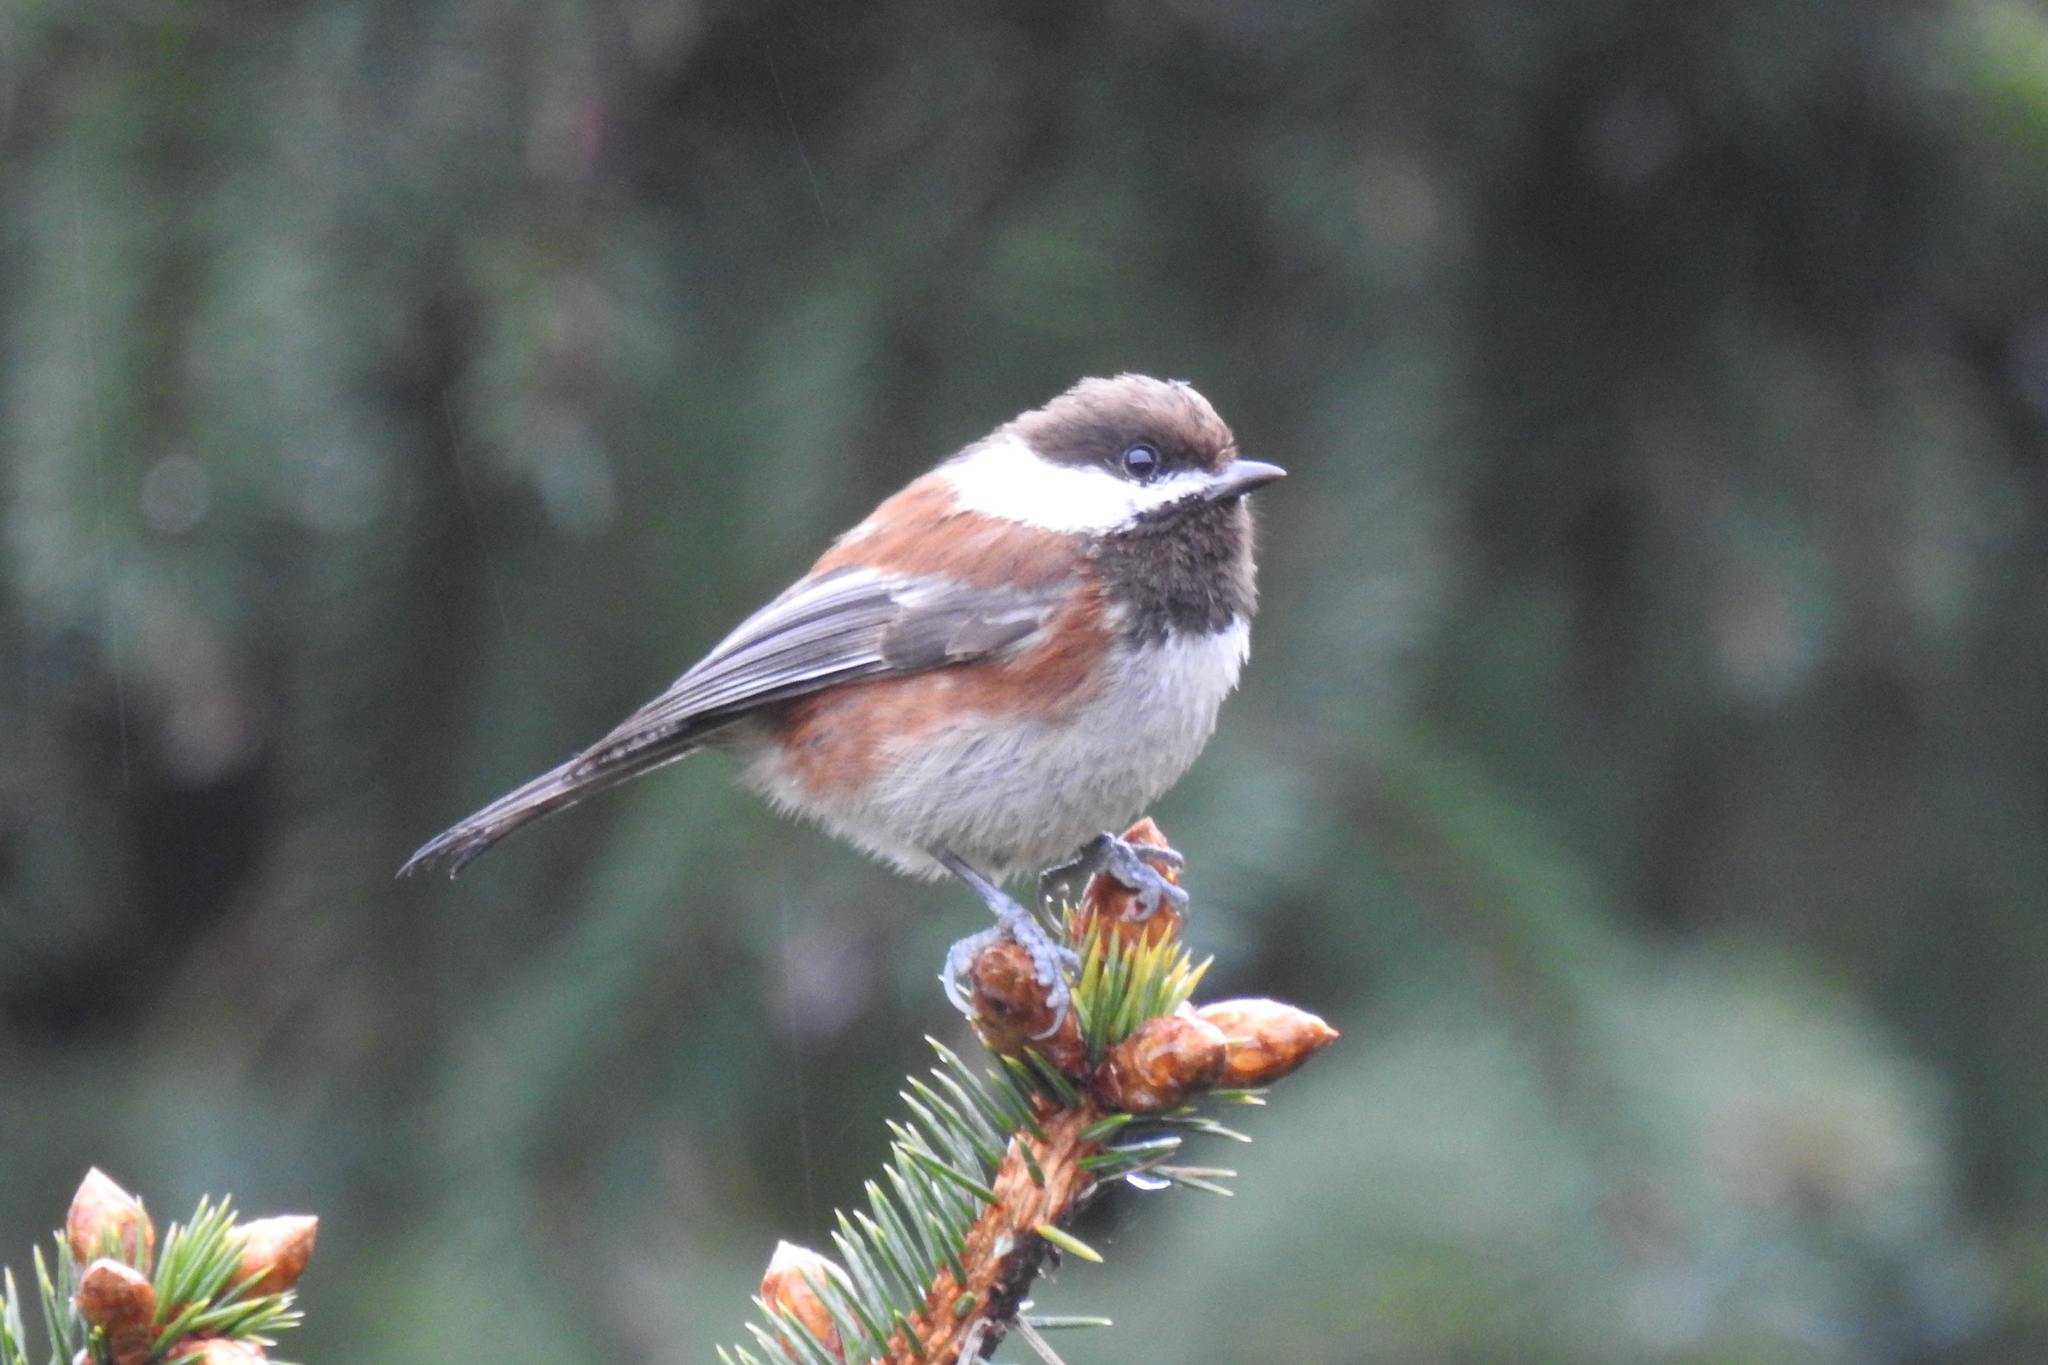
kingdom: Animalia
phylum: Chordata
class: Aves
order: Passeriformes
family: Paridae
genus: Poecile
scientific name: Poecile rufescens
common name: Chestnut-backed chickadee
